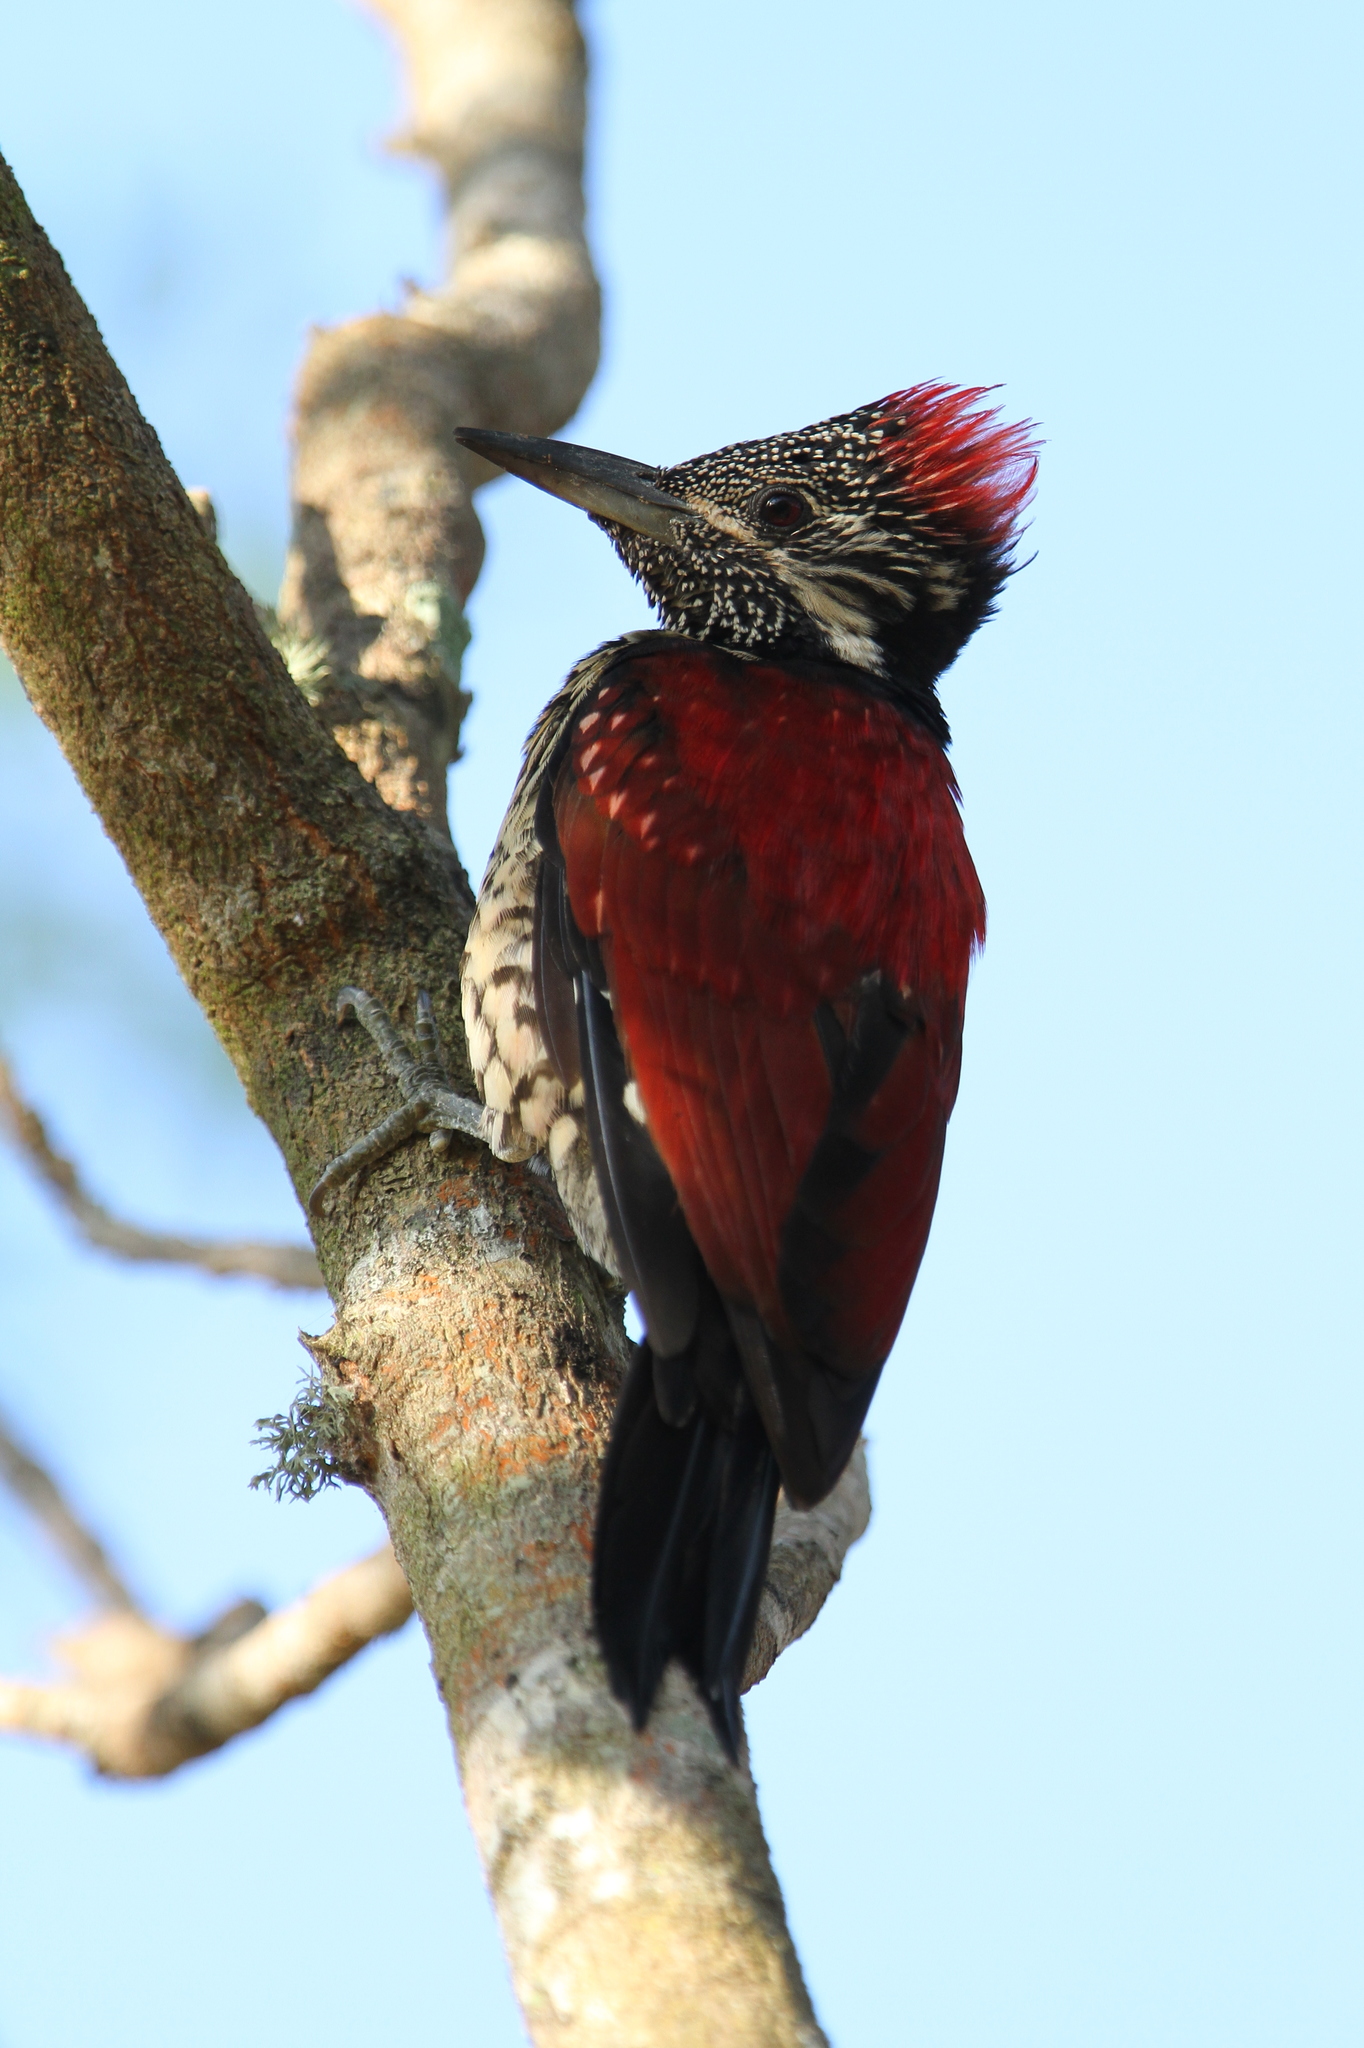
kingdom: Animalia
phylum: Chordata
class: Aves
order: Piciformes
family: Picidae
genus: Dinopium
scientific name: Dinopium psarodes
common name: Red-backed flameback
